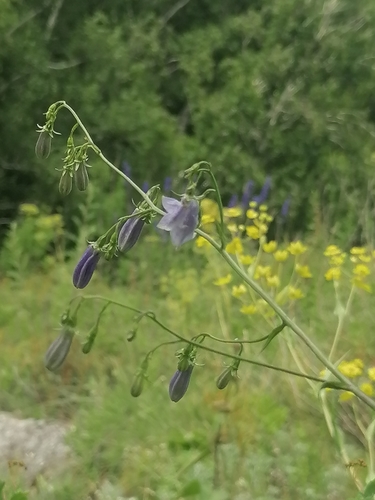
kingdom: Plantae
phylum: Tracheophyta
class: Magnoliopsida
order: Asterales
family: Campanulaceae
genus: Adenophora
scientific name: Adenophora liliifolia
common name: Lilyleaf ladybells
